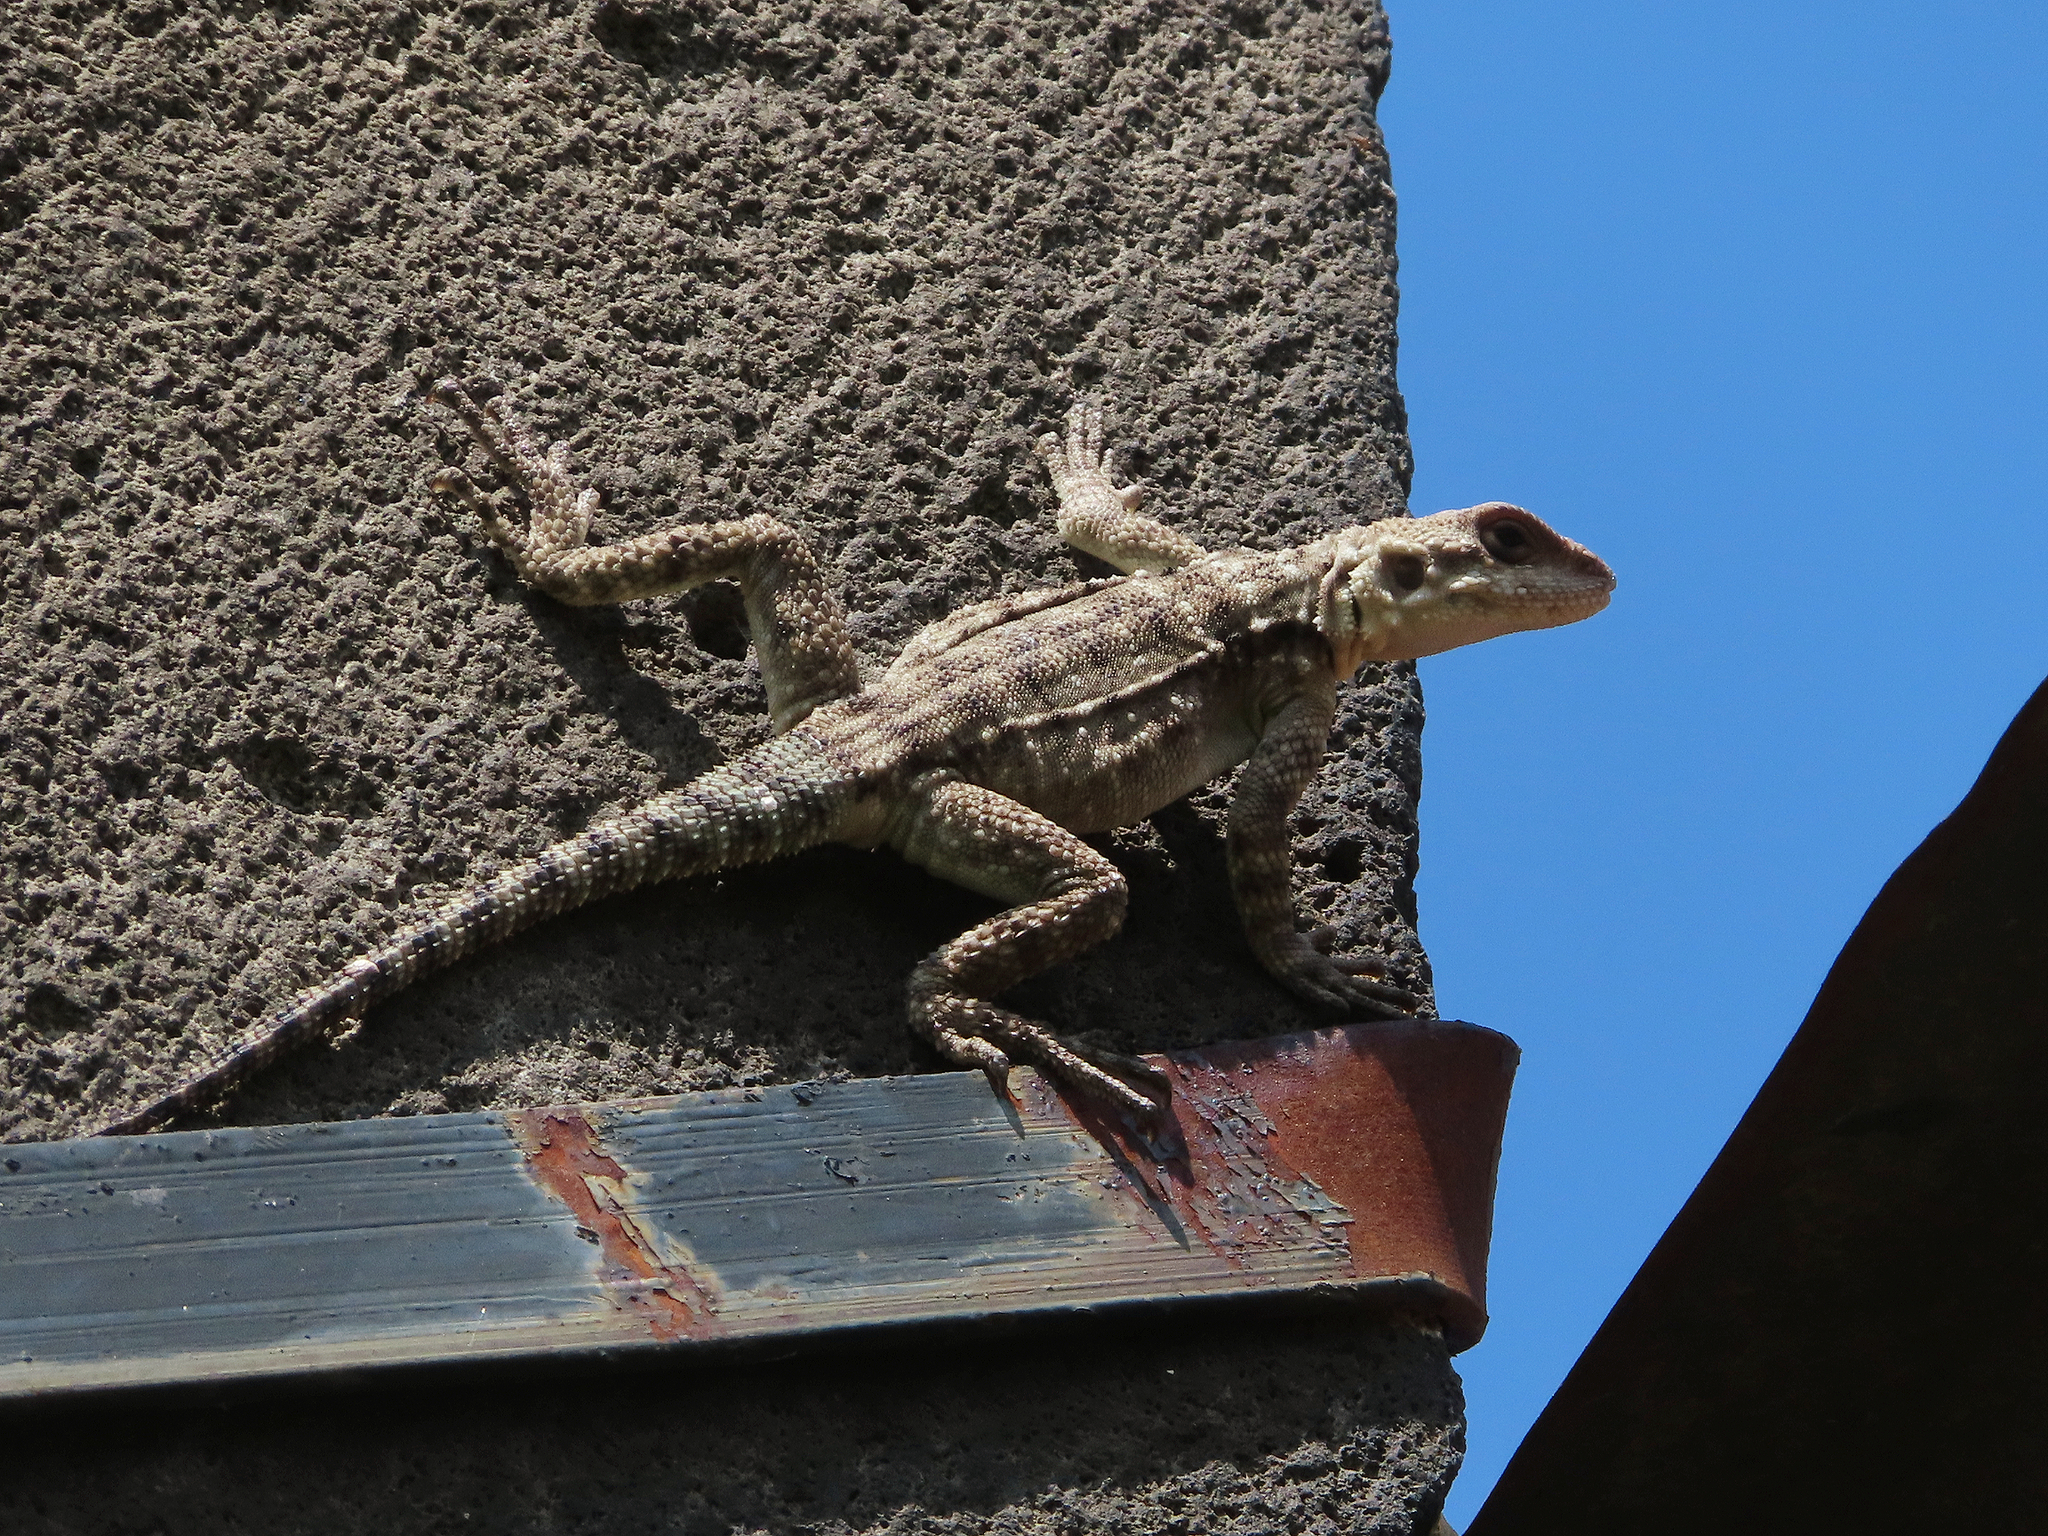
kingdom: Animalia
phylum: Chordata
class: Squamata
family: Agamidae
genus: Paralaudakia
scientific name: Paralaudakia caucasia
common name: Caucasian agama
